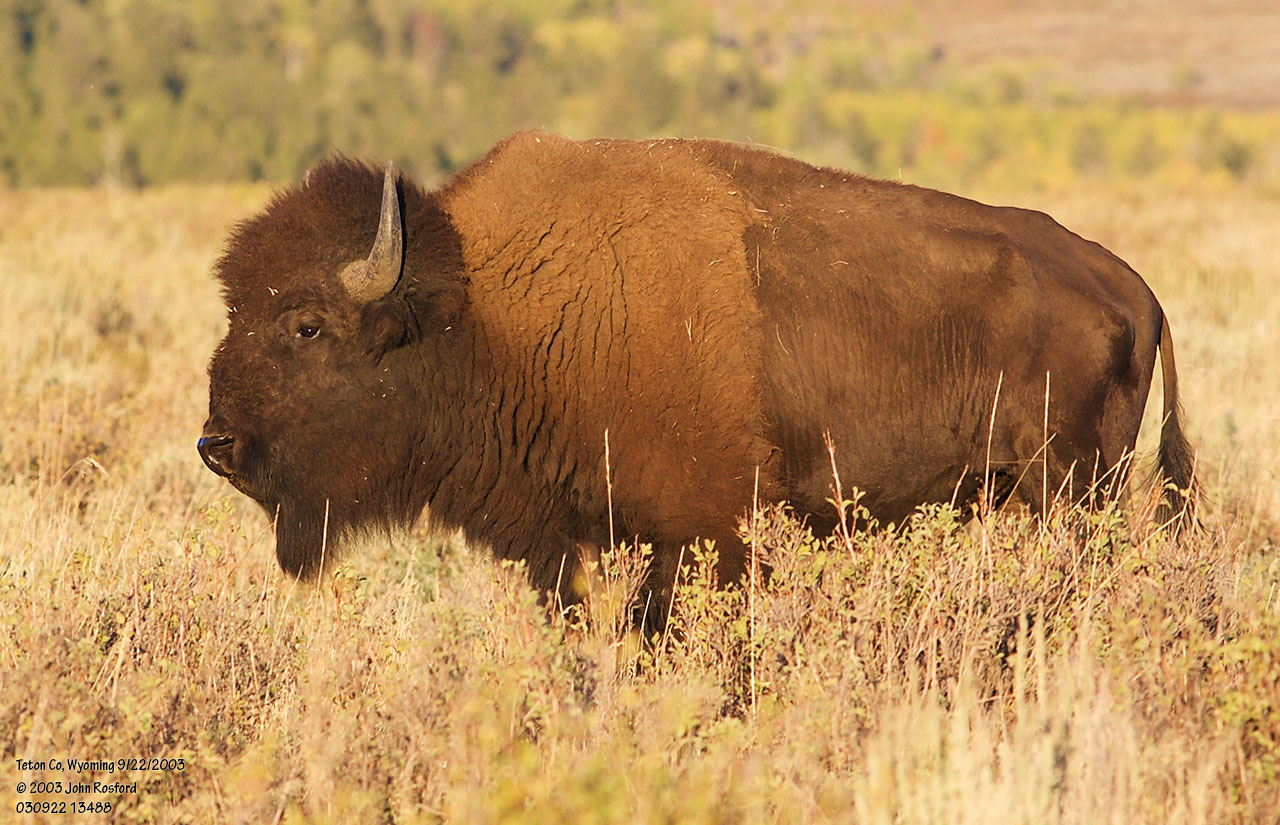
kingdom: Animalia
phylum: Chordata
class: Mammalia
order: Artiodactyla
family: Bovidae
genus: Bison
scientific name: Bison bison
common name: American bison
